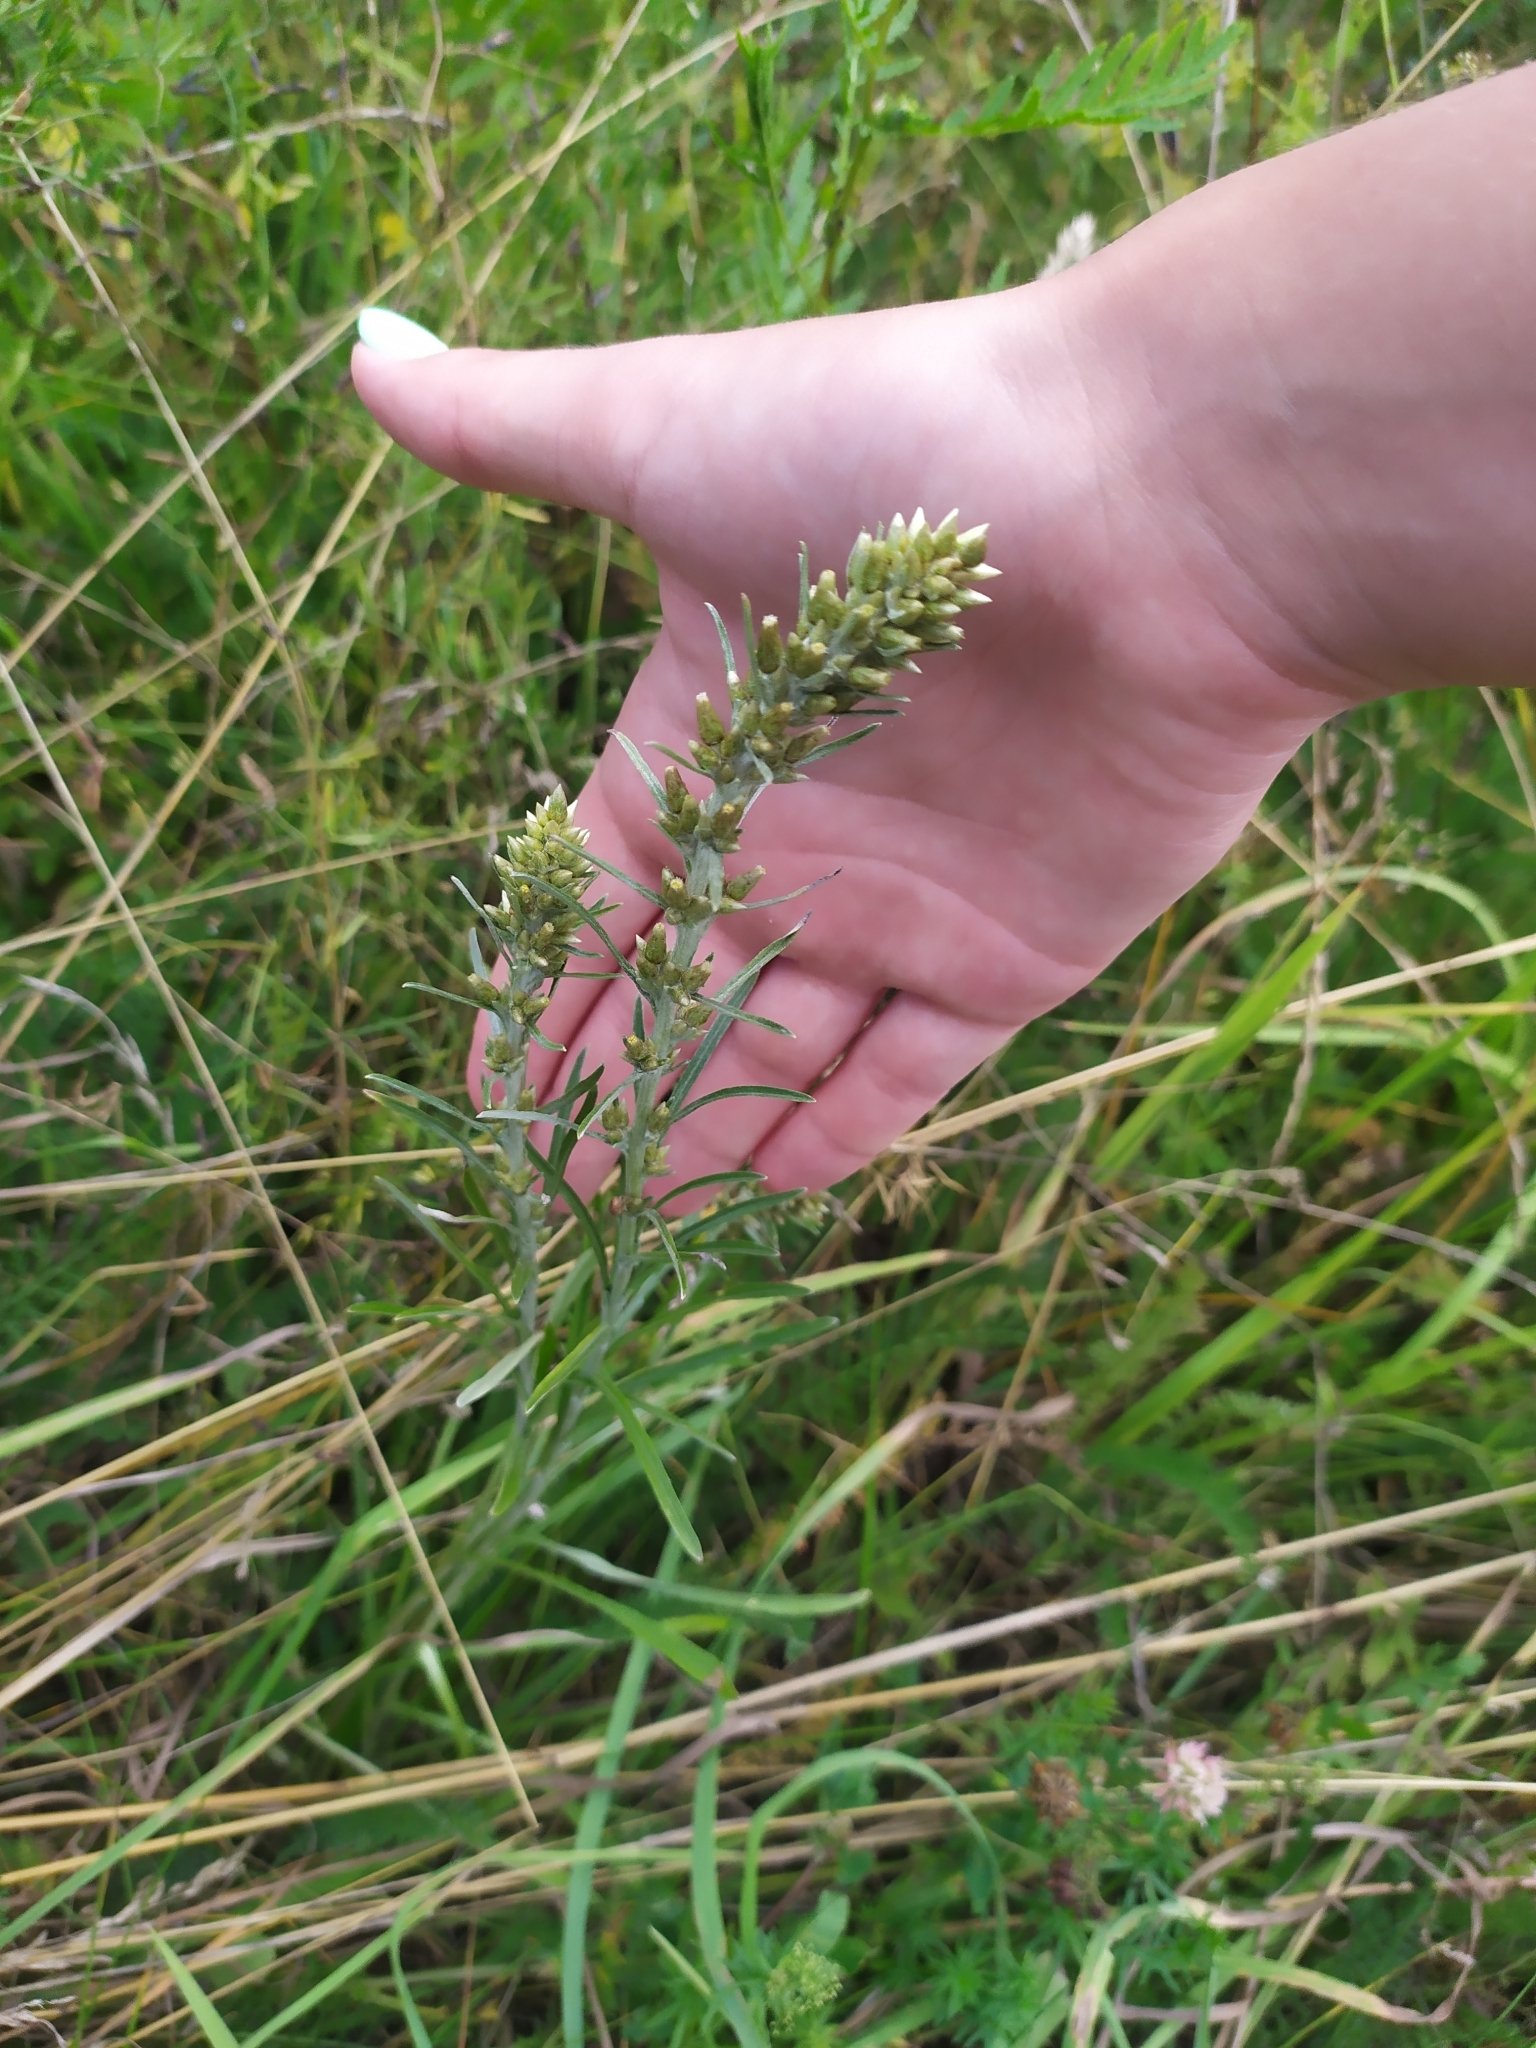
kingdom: Plantae
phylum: Tracheophyta
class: Magnoliopsida
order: Asterales
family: Asteraceae
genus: Omalotheca
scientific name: Omalotheca sylvatica
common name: Heath cudweed
